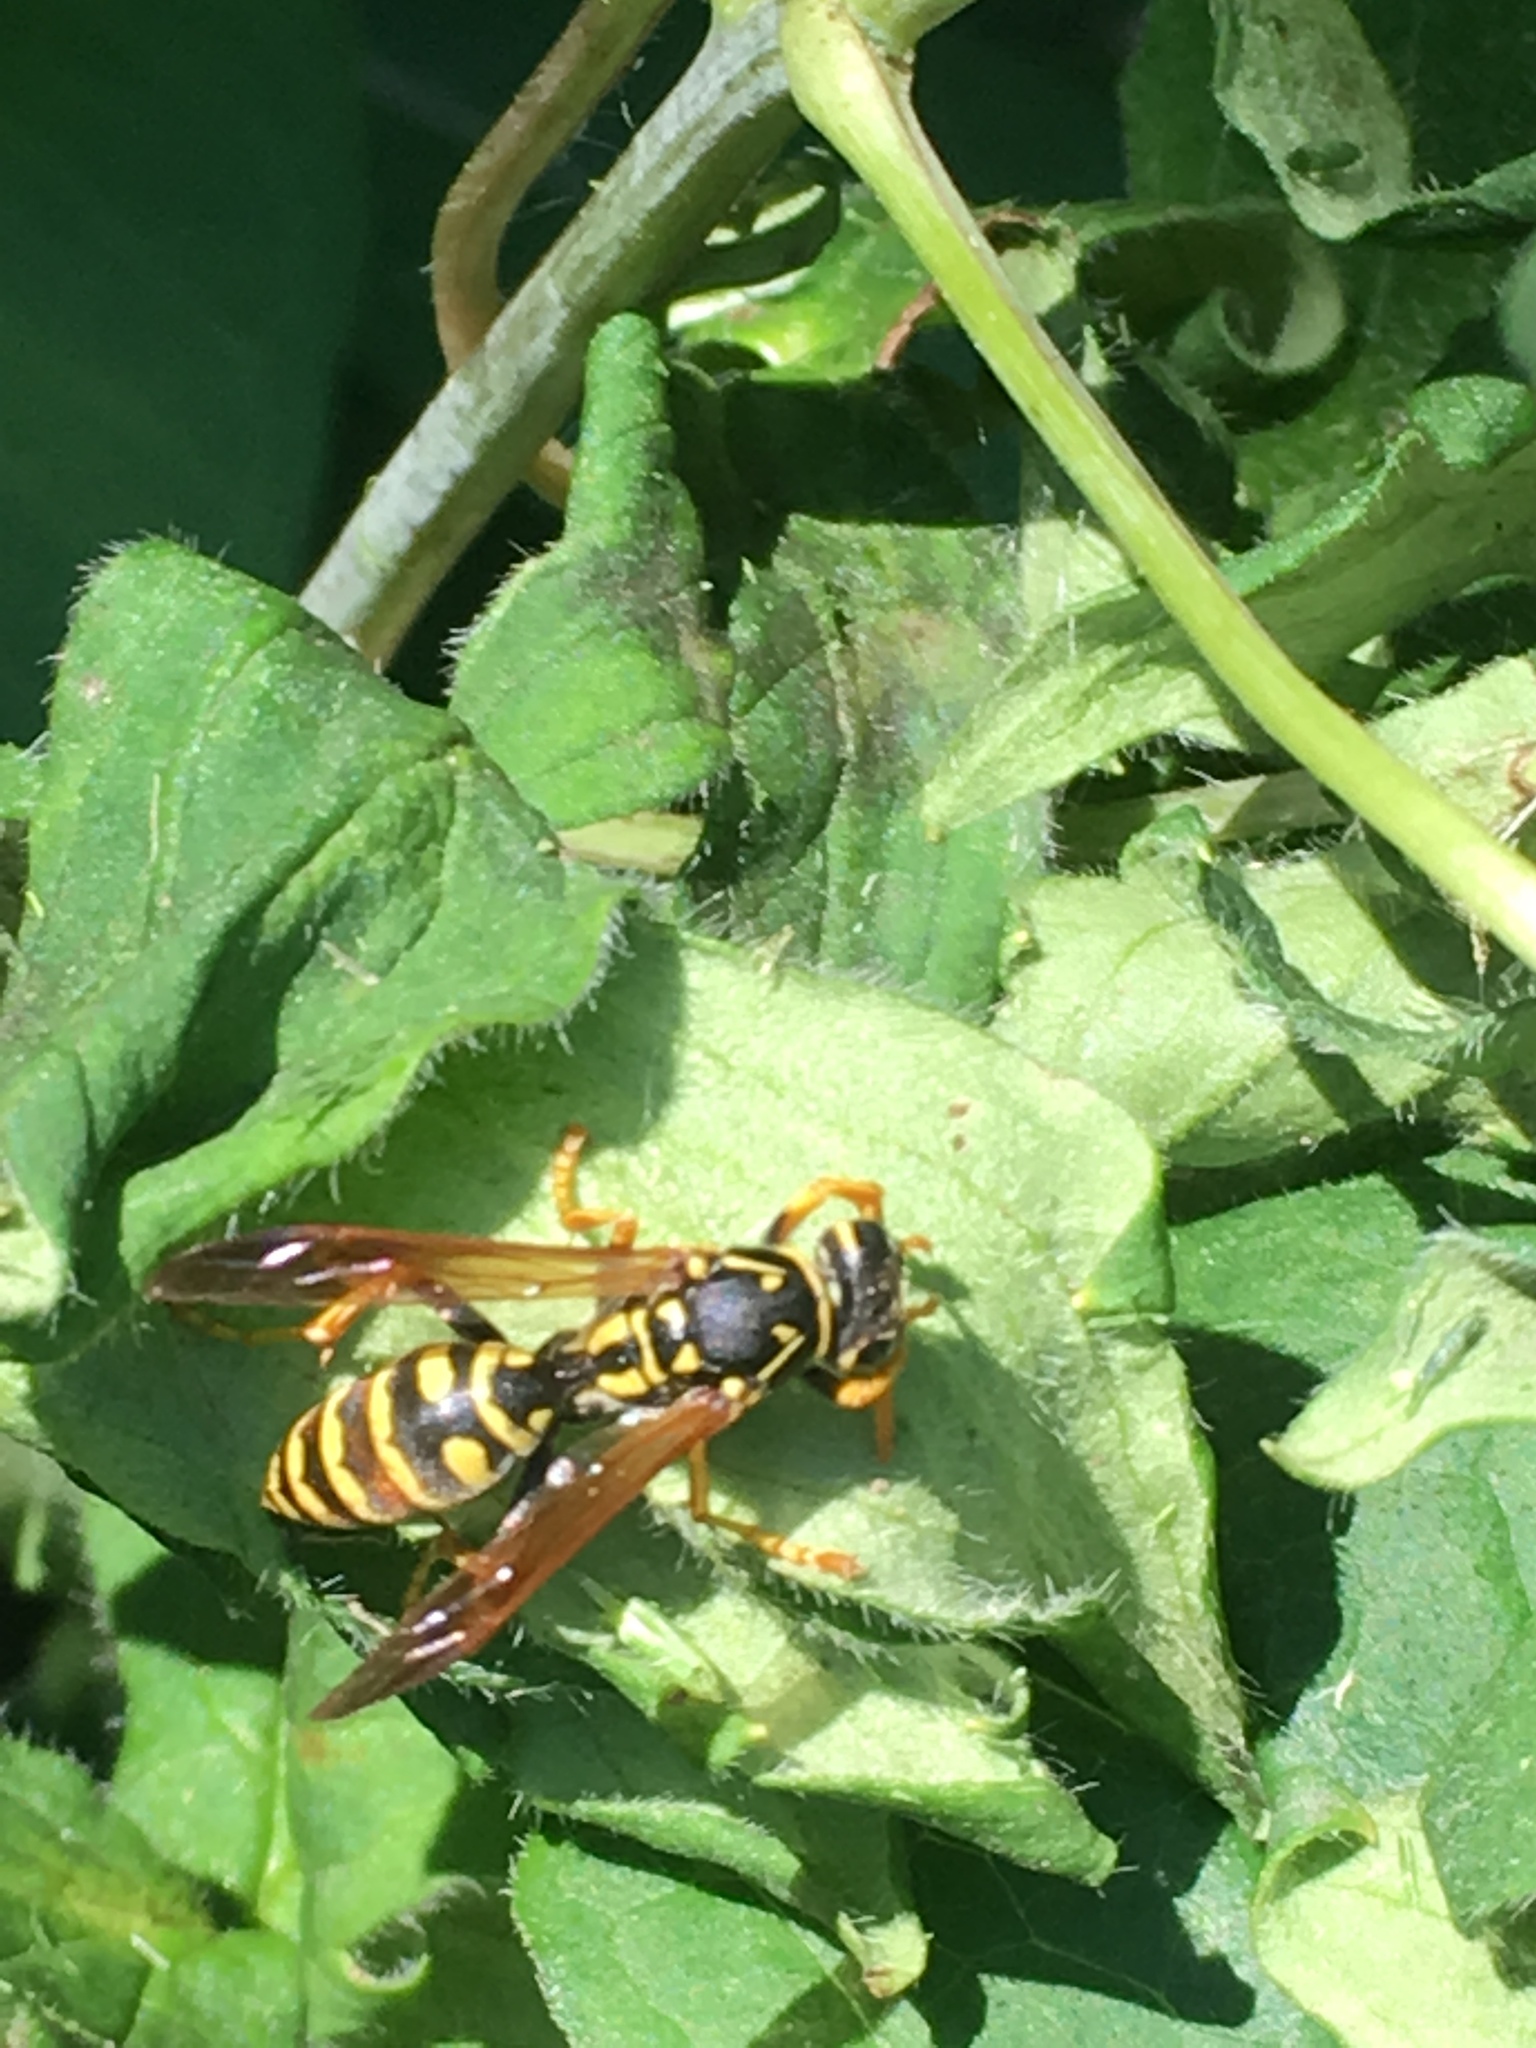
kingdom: Animalia
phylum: Arthropoda
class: Insecta
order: Hymenoptera
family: Eumenidae
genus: Polistes
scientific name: Polistes dominula
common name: Paper wasp
